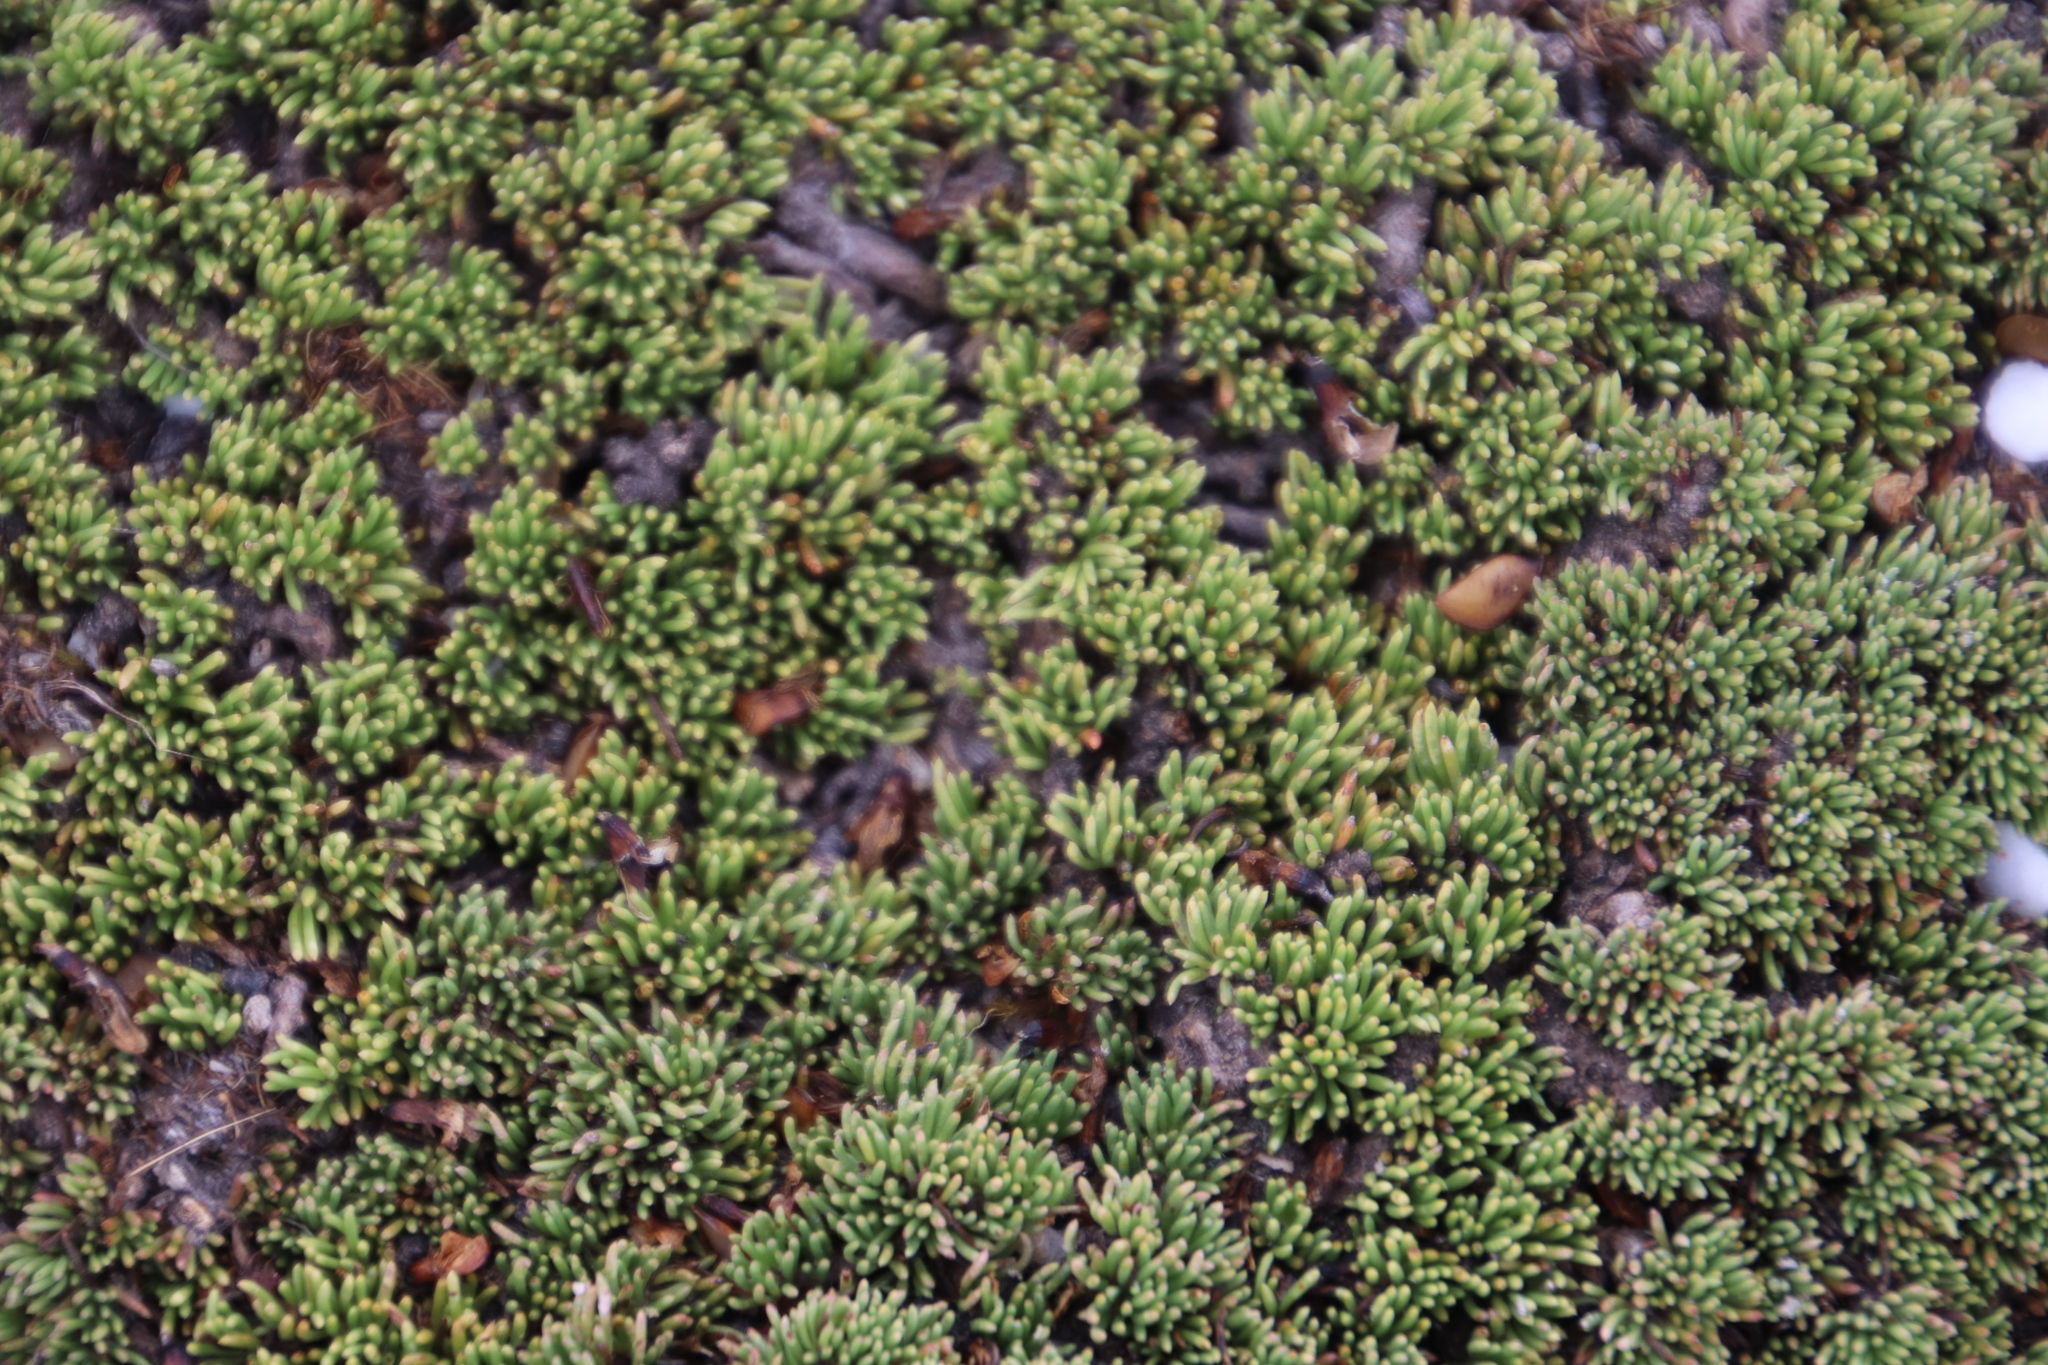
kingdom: Plantae
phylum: Tracheophyta
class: Magnoliopsida
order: Fabales
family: Fabaceae
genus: Aspalathus
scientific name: Aspalathus quartzicola
